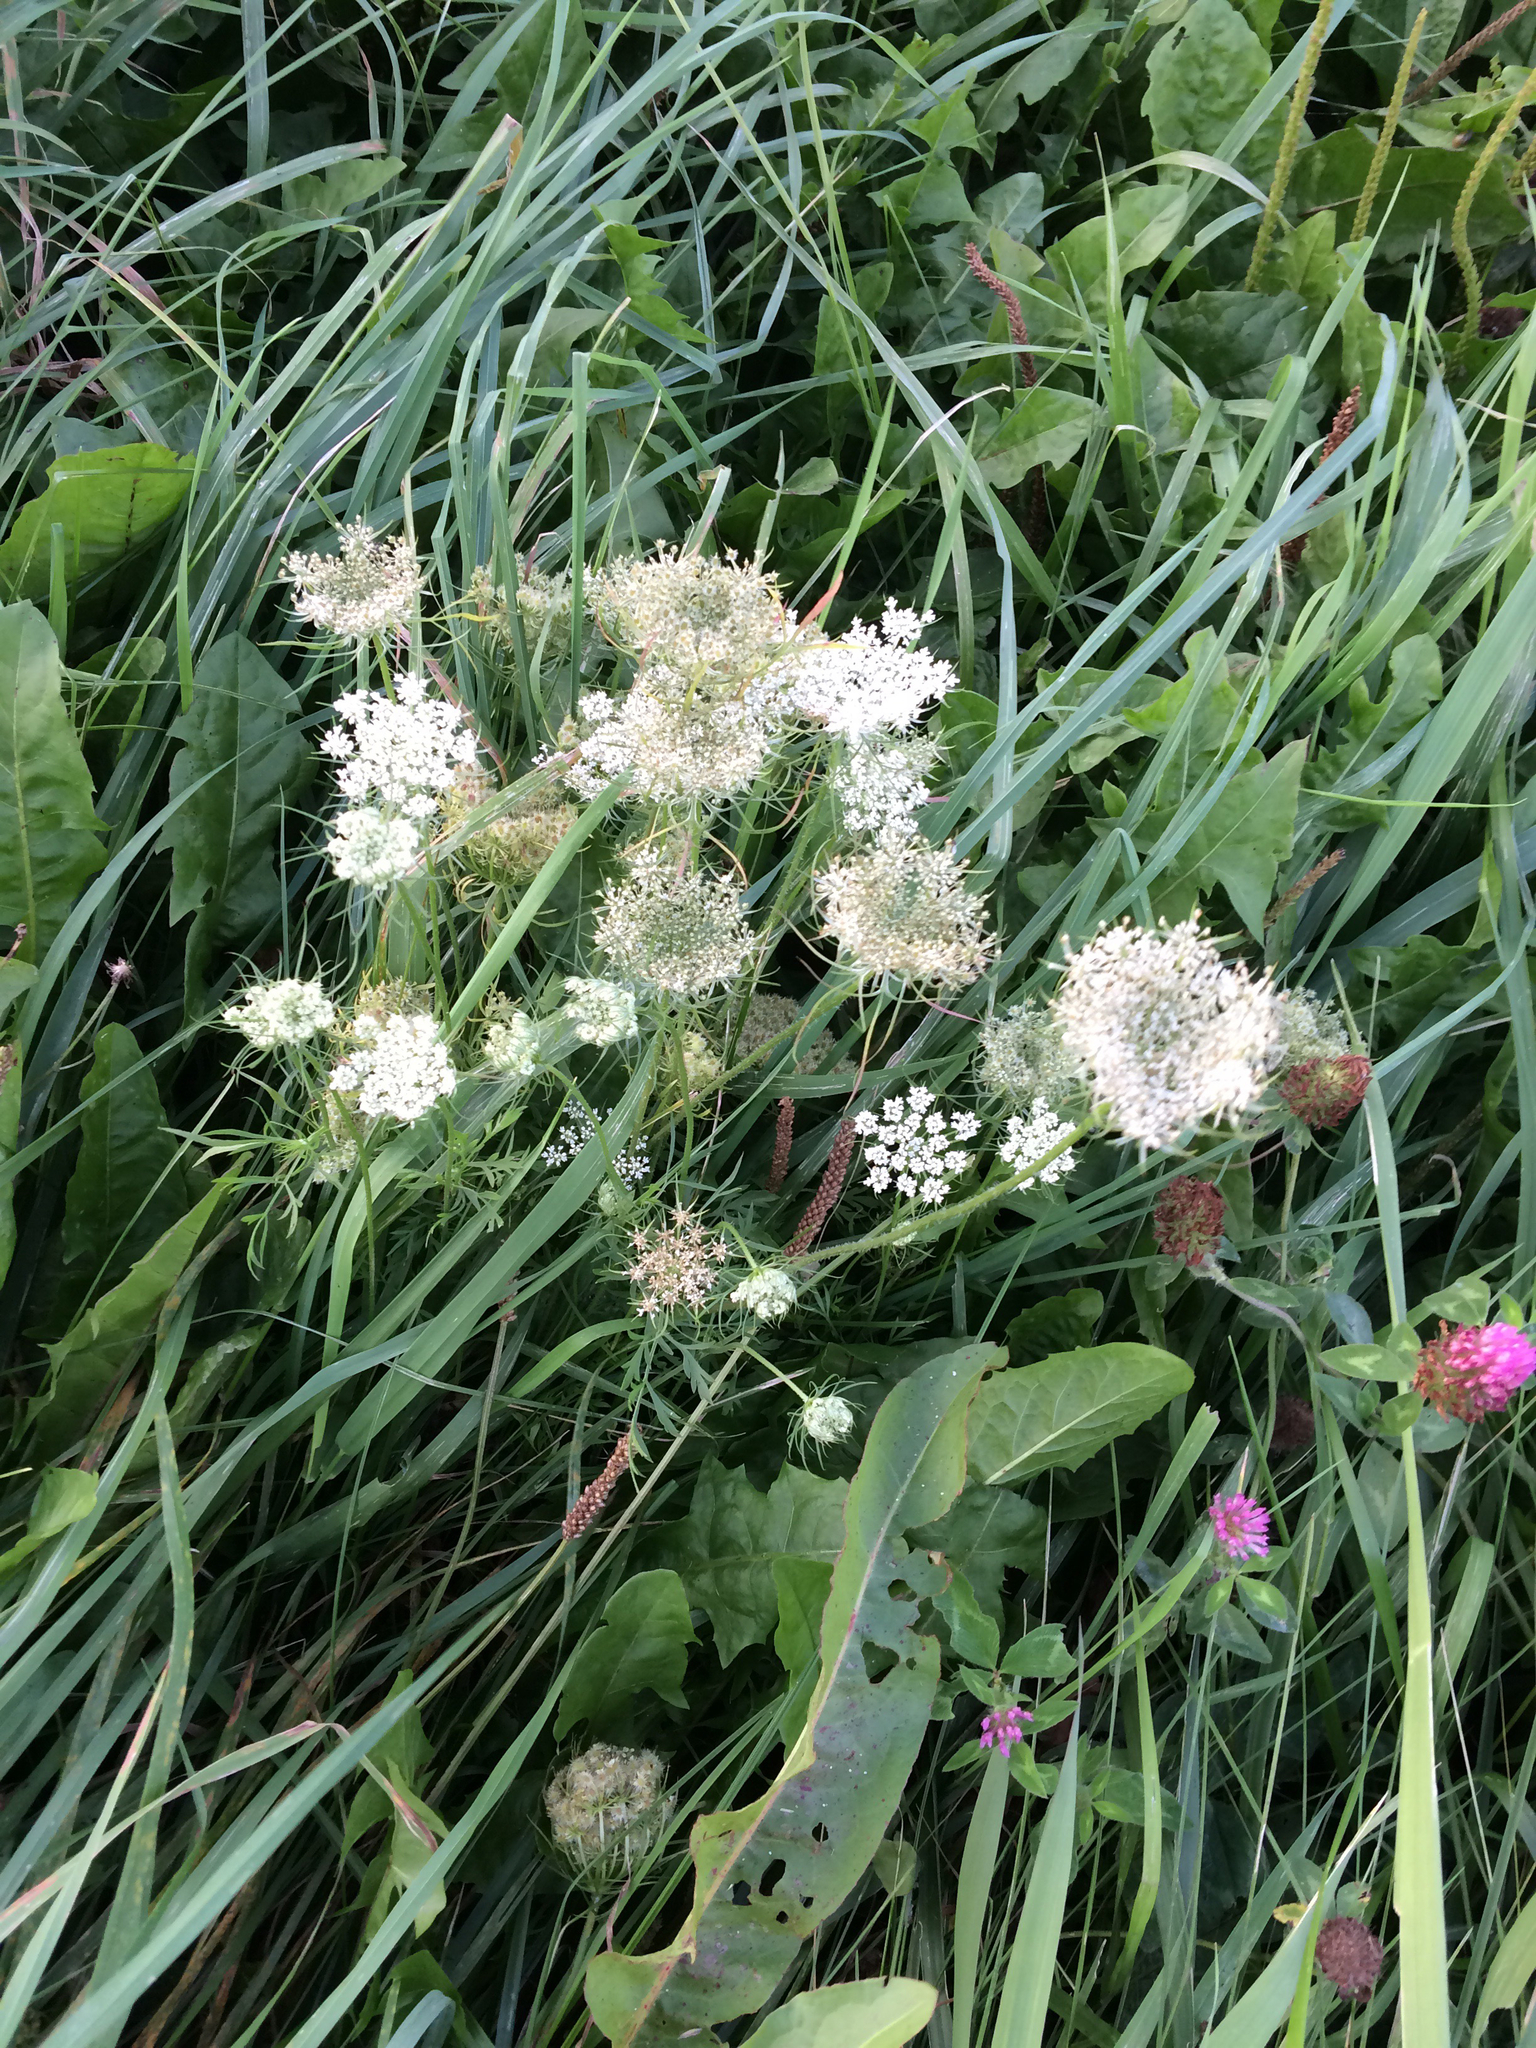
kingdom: Plantae
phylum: Tracheophyta
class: Magnoliopsida
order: Apiales
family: Apiaceae
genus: Daucus
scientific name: Daucus carota
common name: Wild carrot
